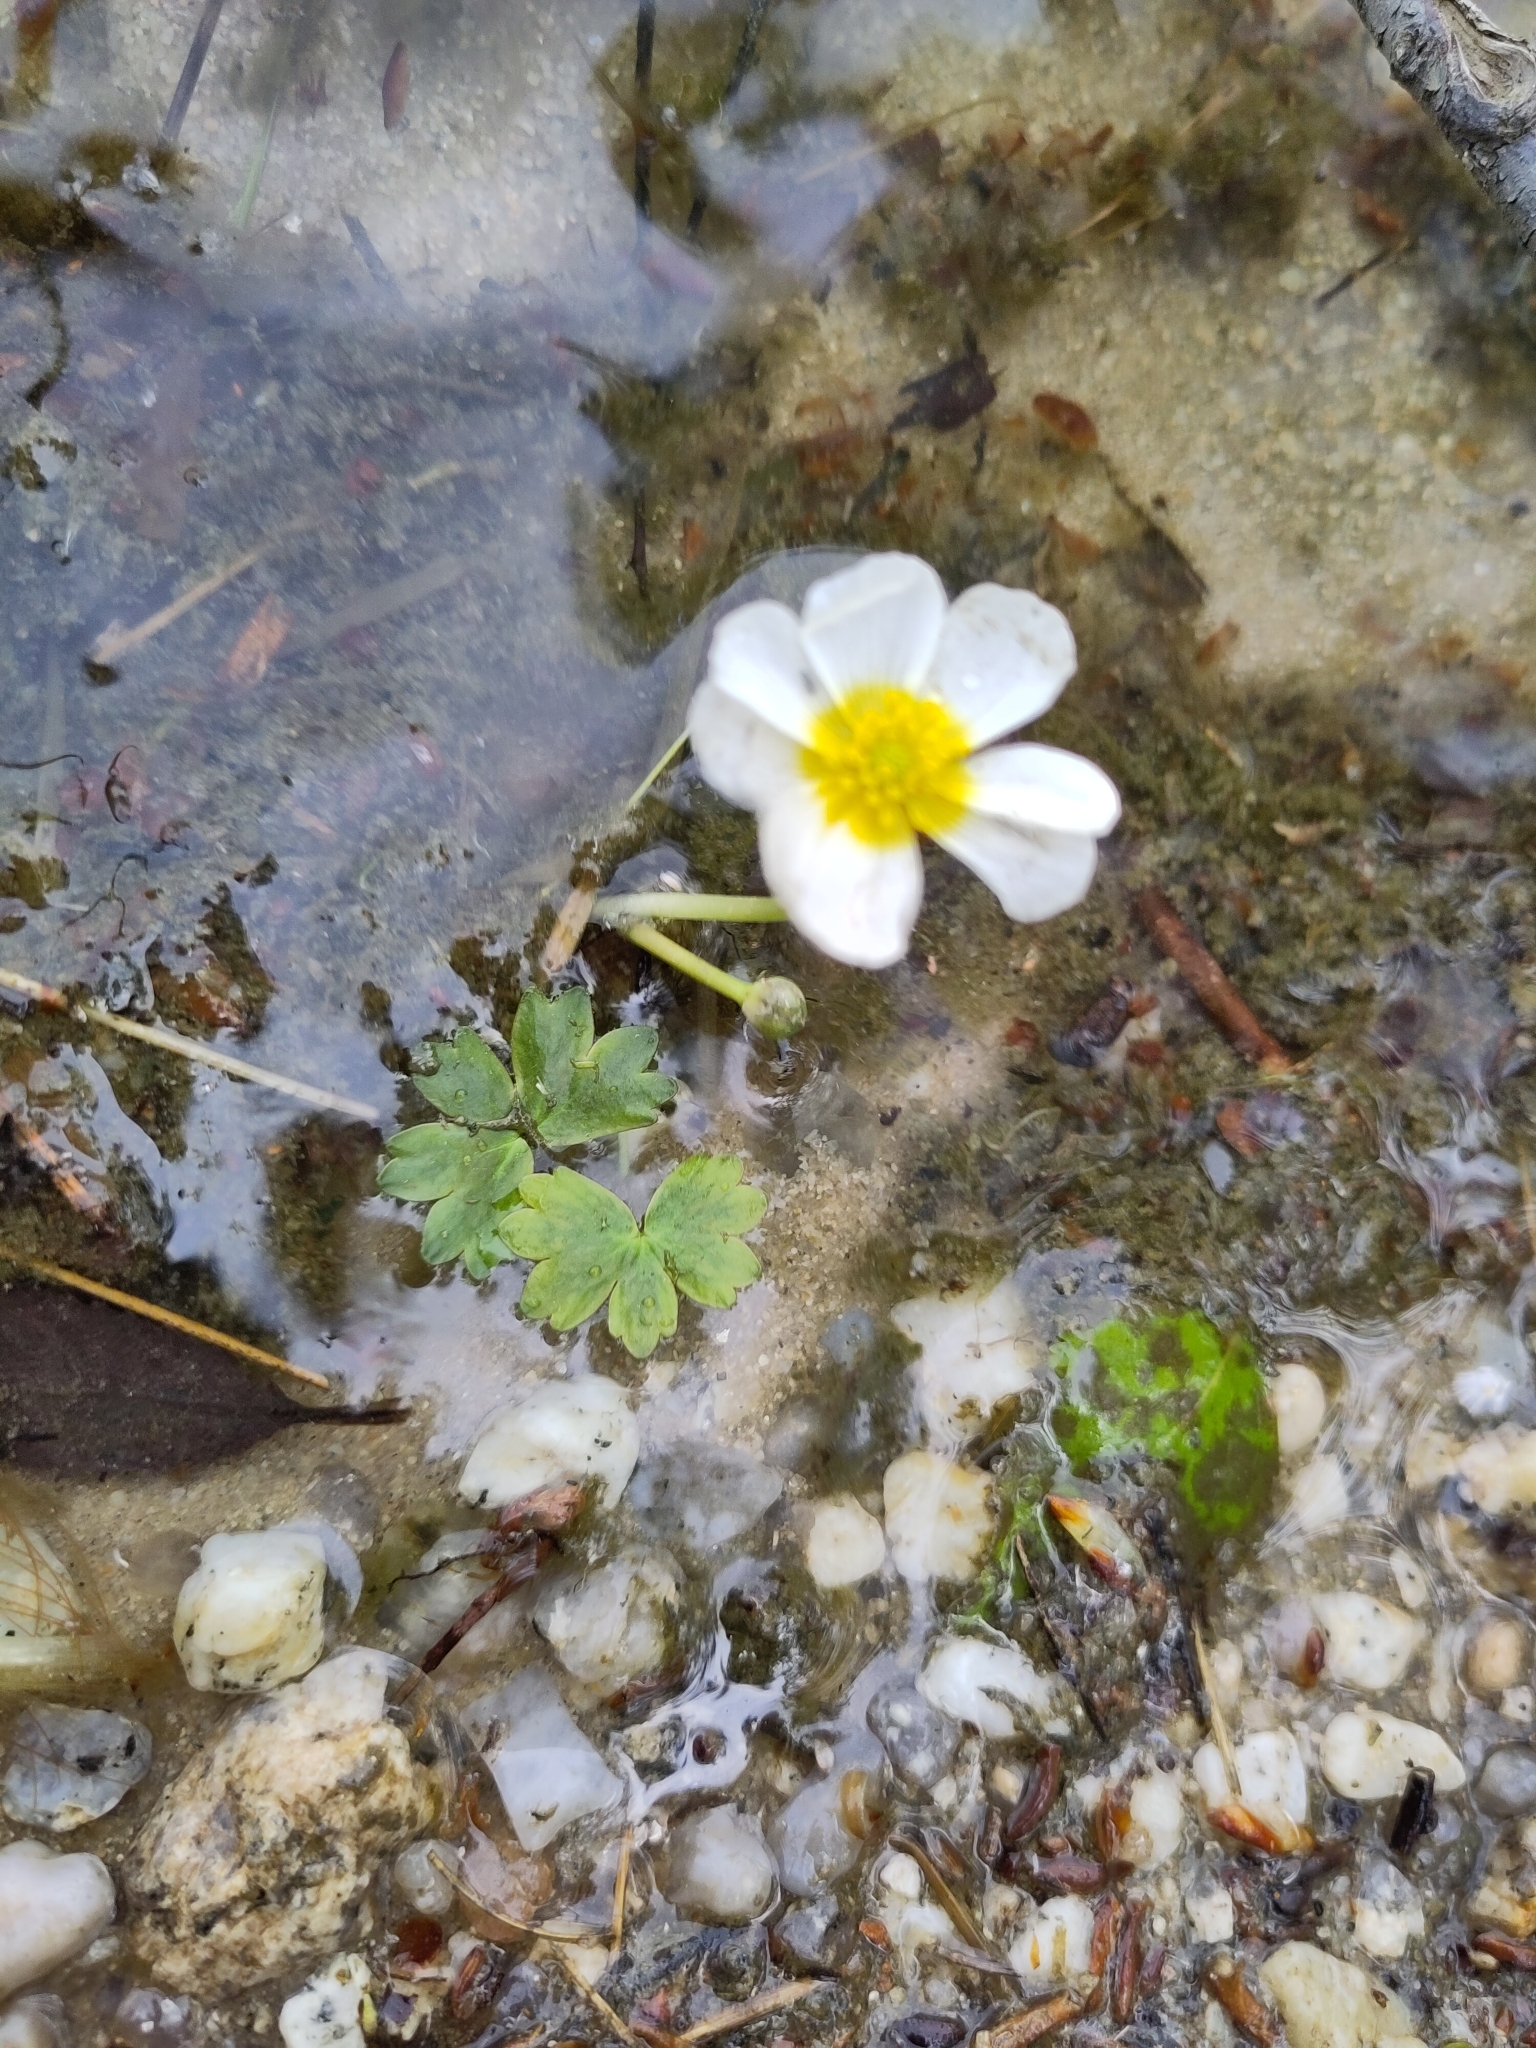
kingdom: Plantae
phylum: Tracheophyta
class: Magnoliopsida
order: Ranunculales
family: Ranunculaceae
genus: Ranunculus
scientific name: Ranunculus peltatus
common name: Pond water-crowfoot
